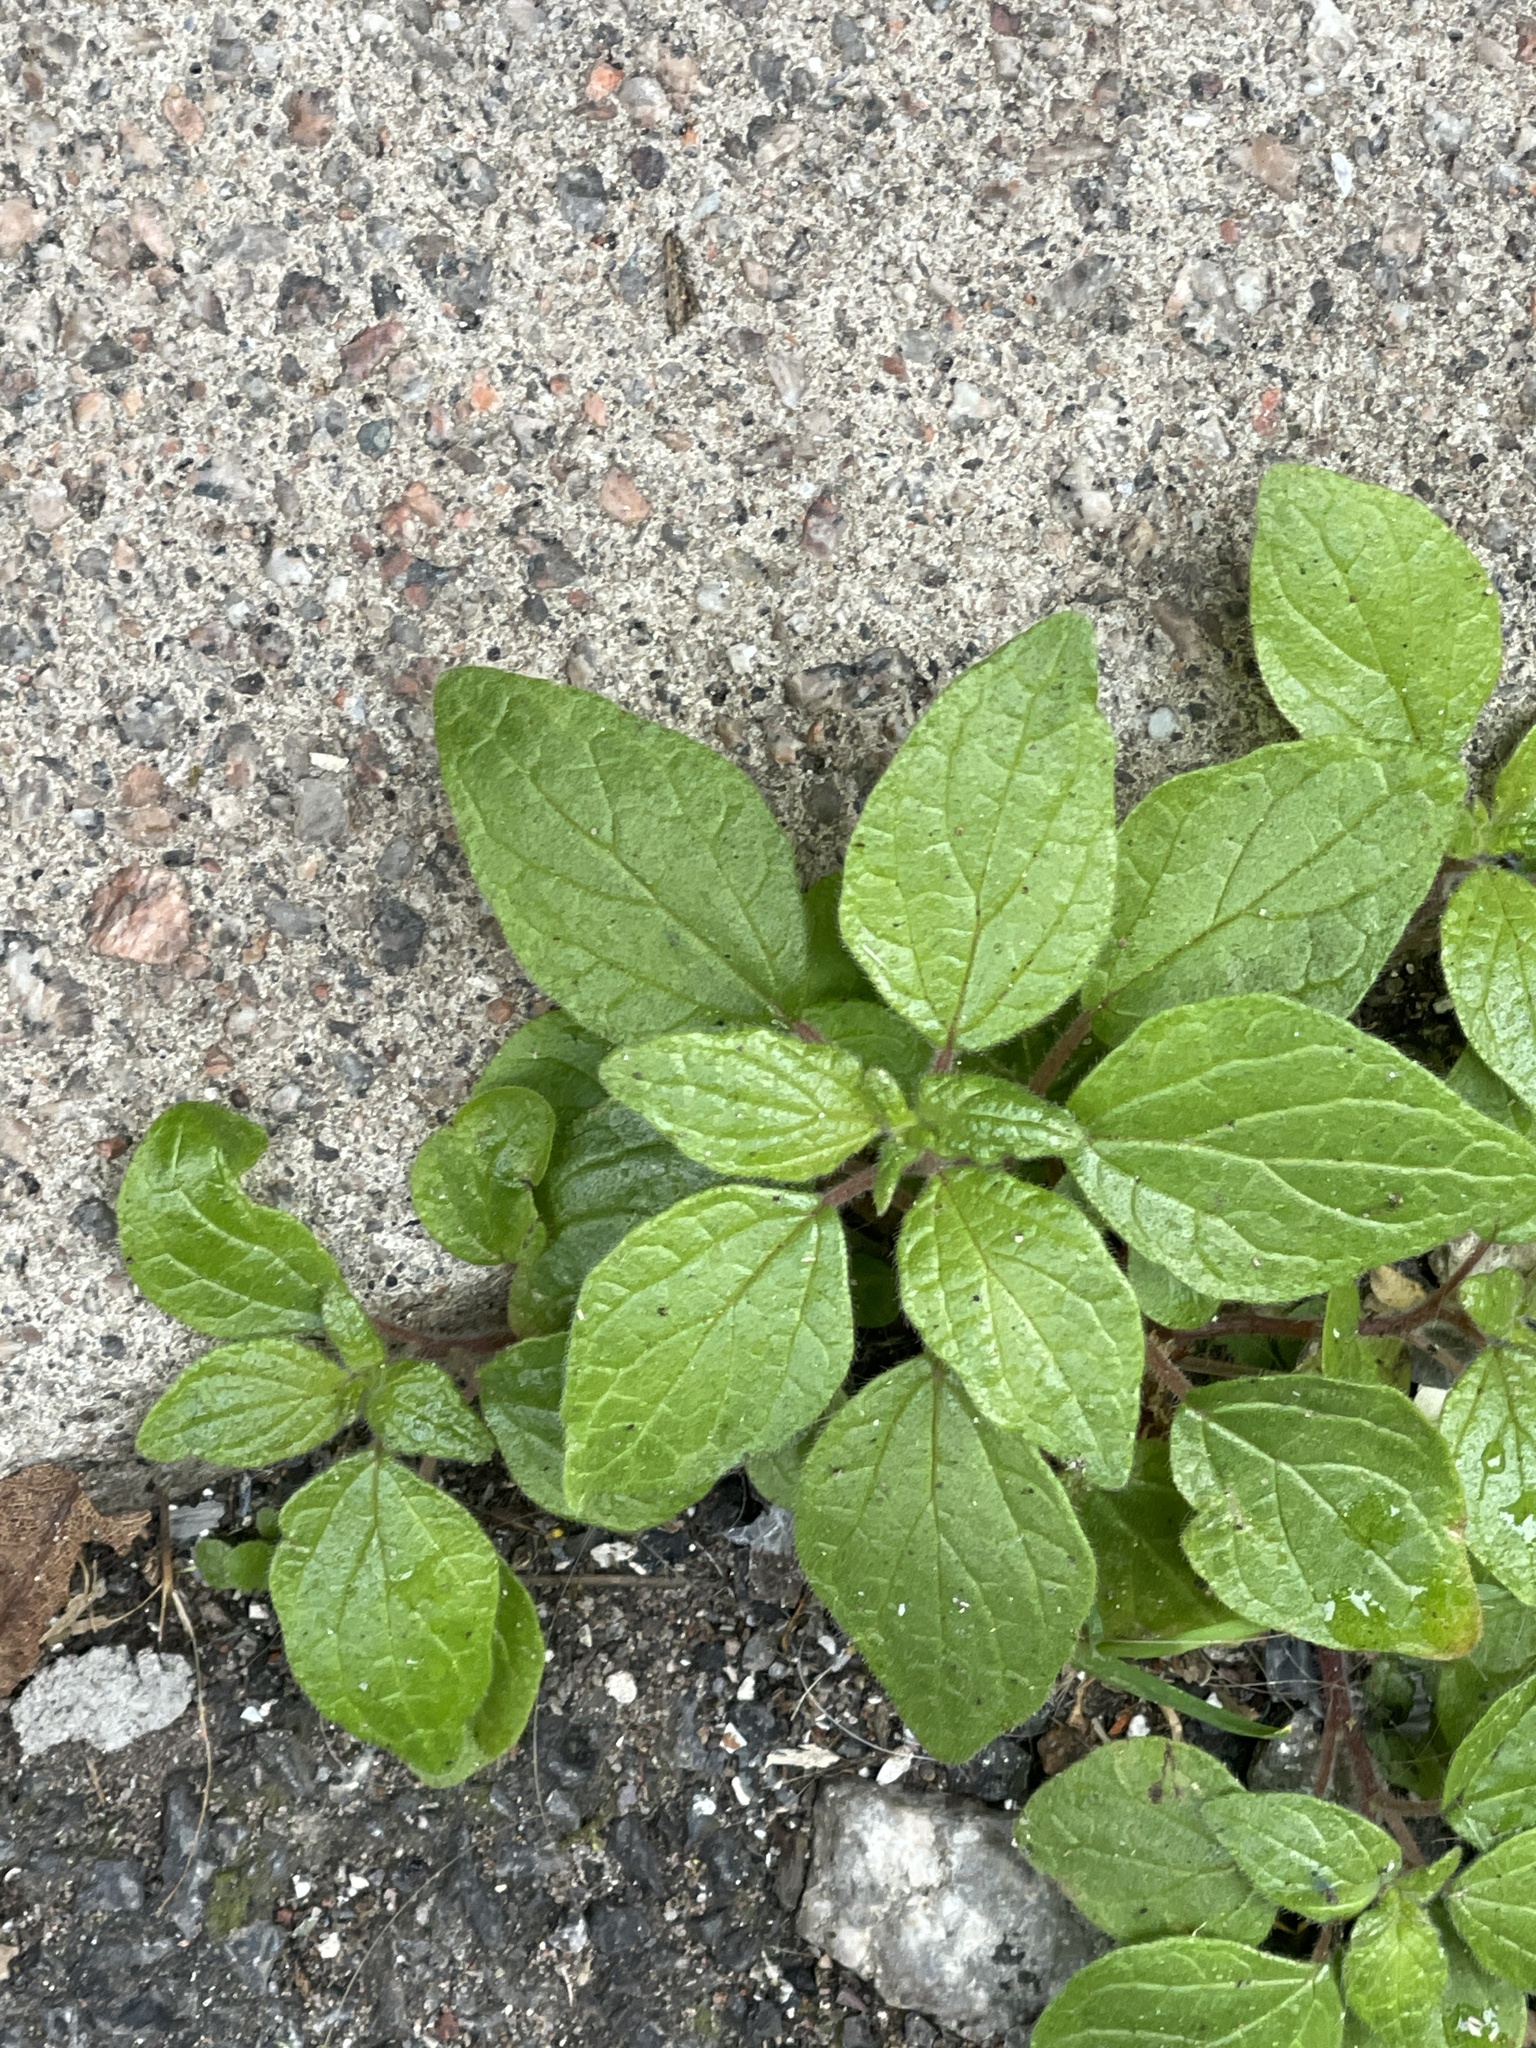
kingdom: Plantae
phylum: Tracheophyta
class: Magnoliopsida
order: Rosales
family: Urticaceae
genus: Parietaria
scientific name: Parietaria judaica
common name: Pellitory-of-the-wall
